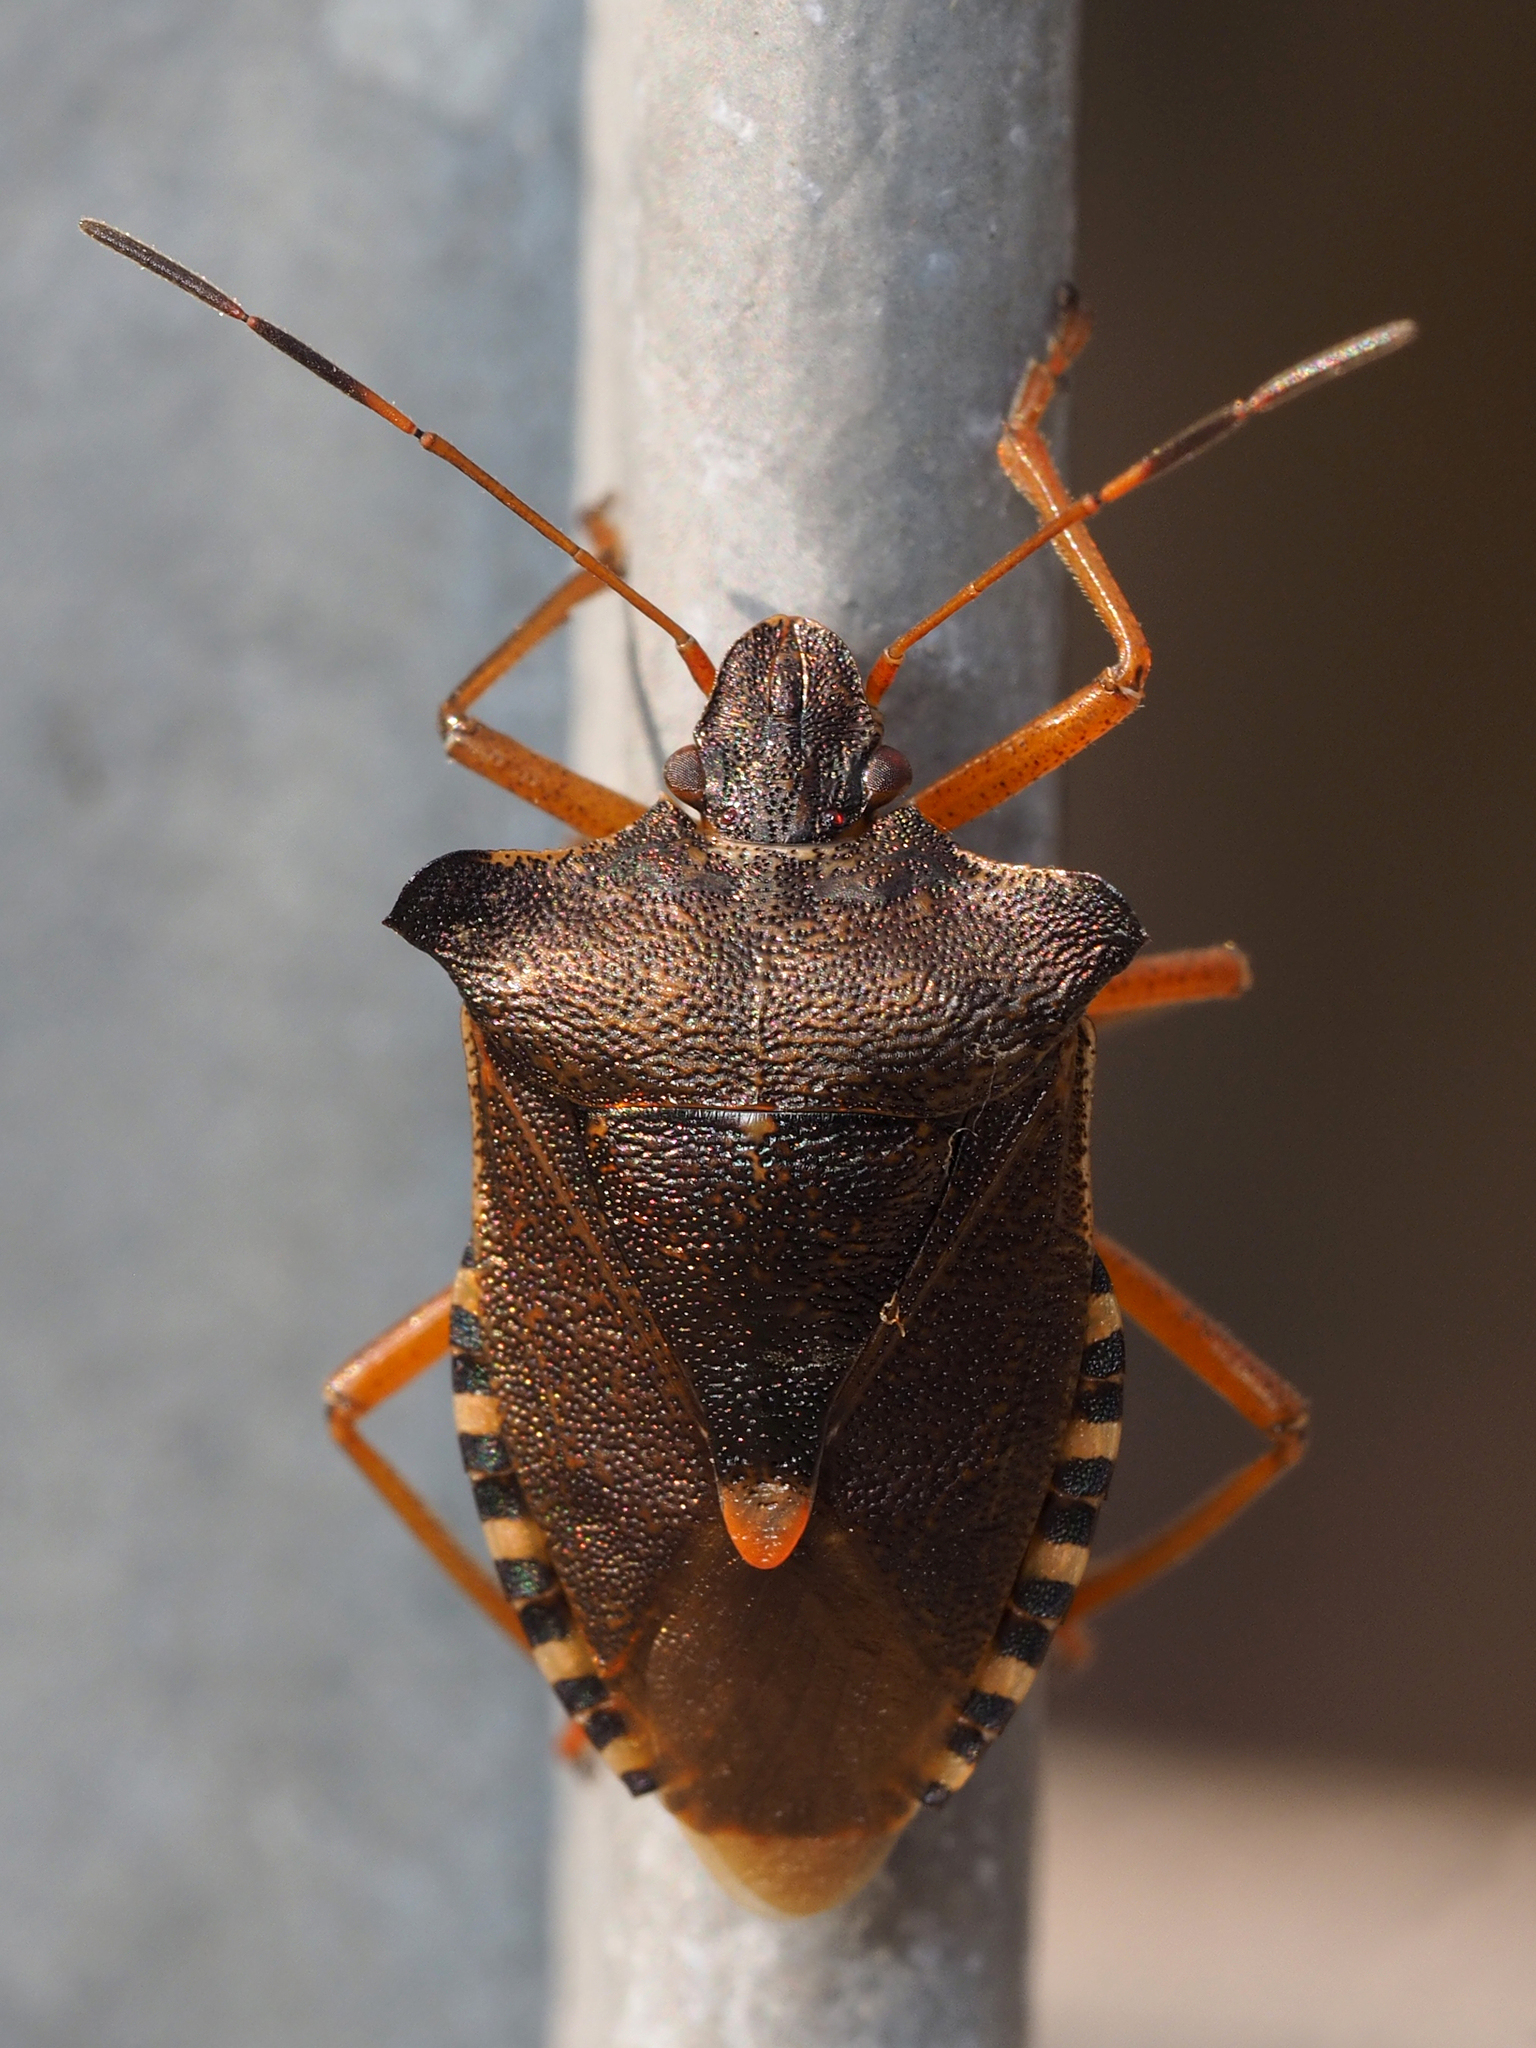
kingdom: Animalia
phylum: Arthropoda
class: Insecta
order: Hemiptera
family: Pentatomidae
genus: Pentatoma
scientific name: Pentatoma rufipes
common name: Forest bug
